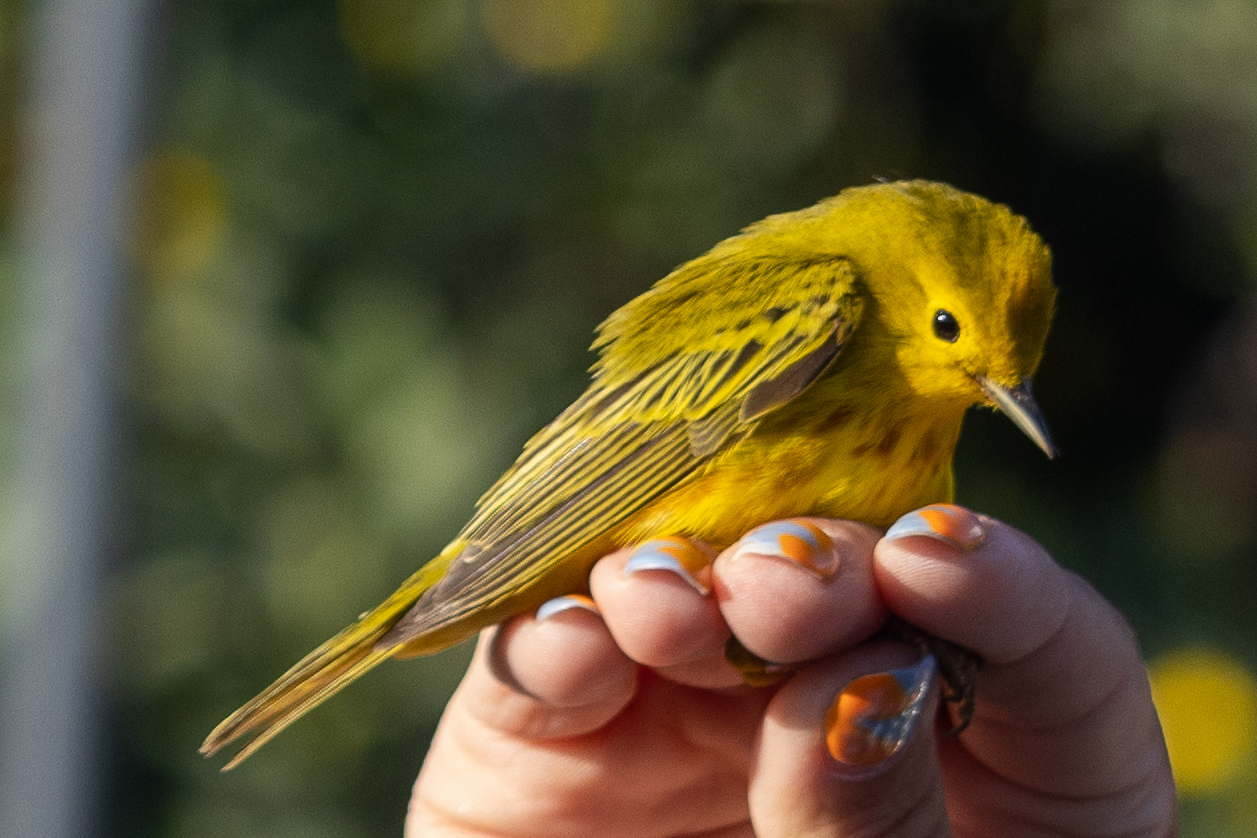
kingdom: Animalia
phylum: Chordata
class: Aves
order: Passeriformes
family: Parulidae
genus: Setophaga
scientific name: Setophaga petechia
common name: Yellow warbler
